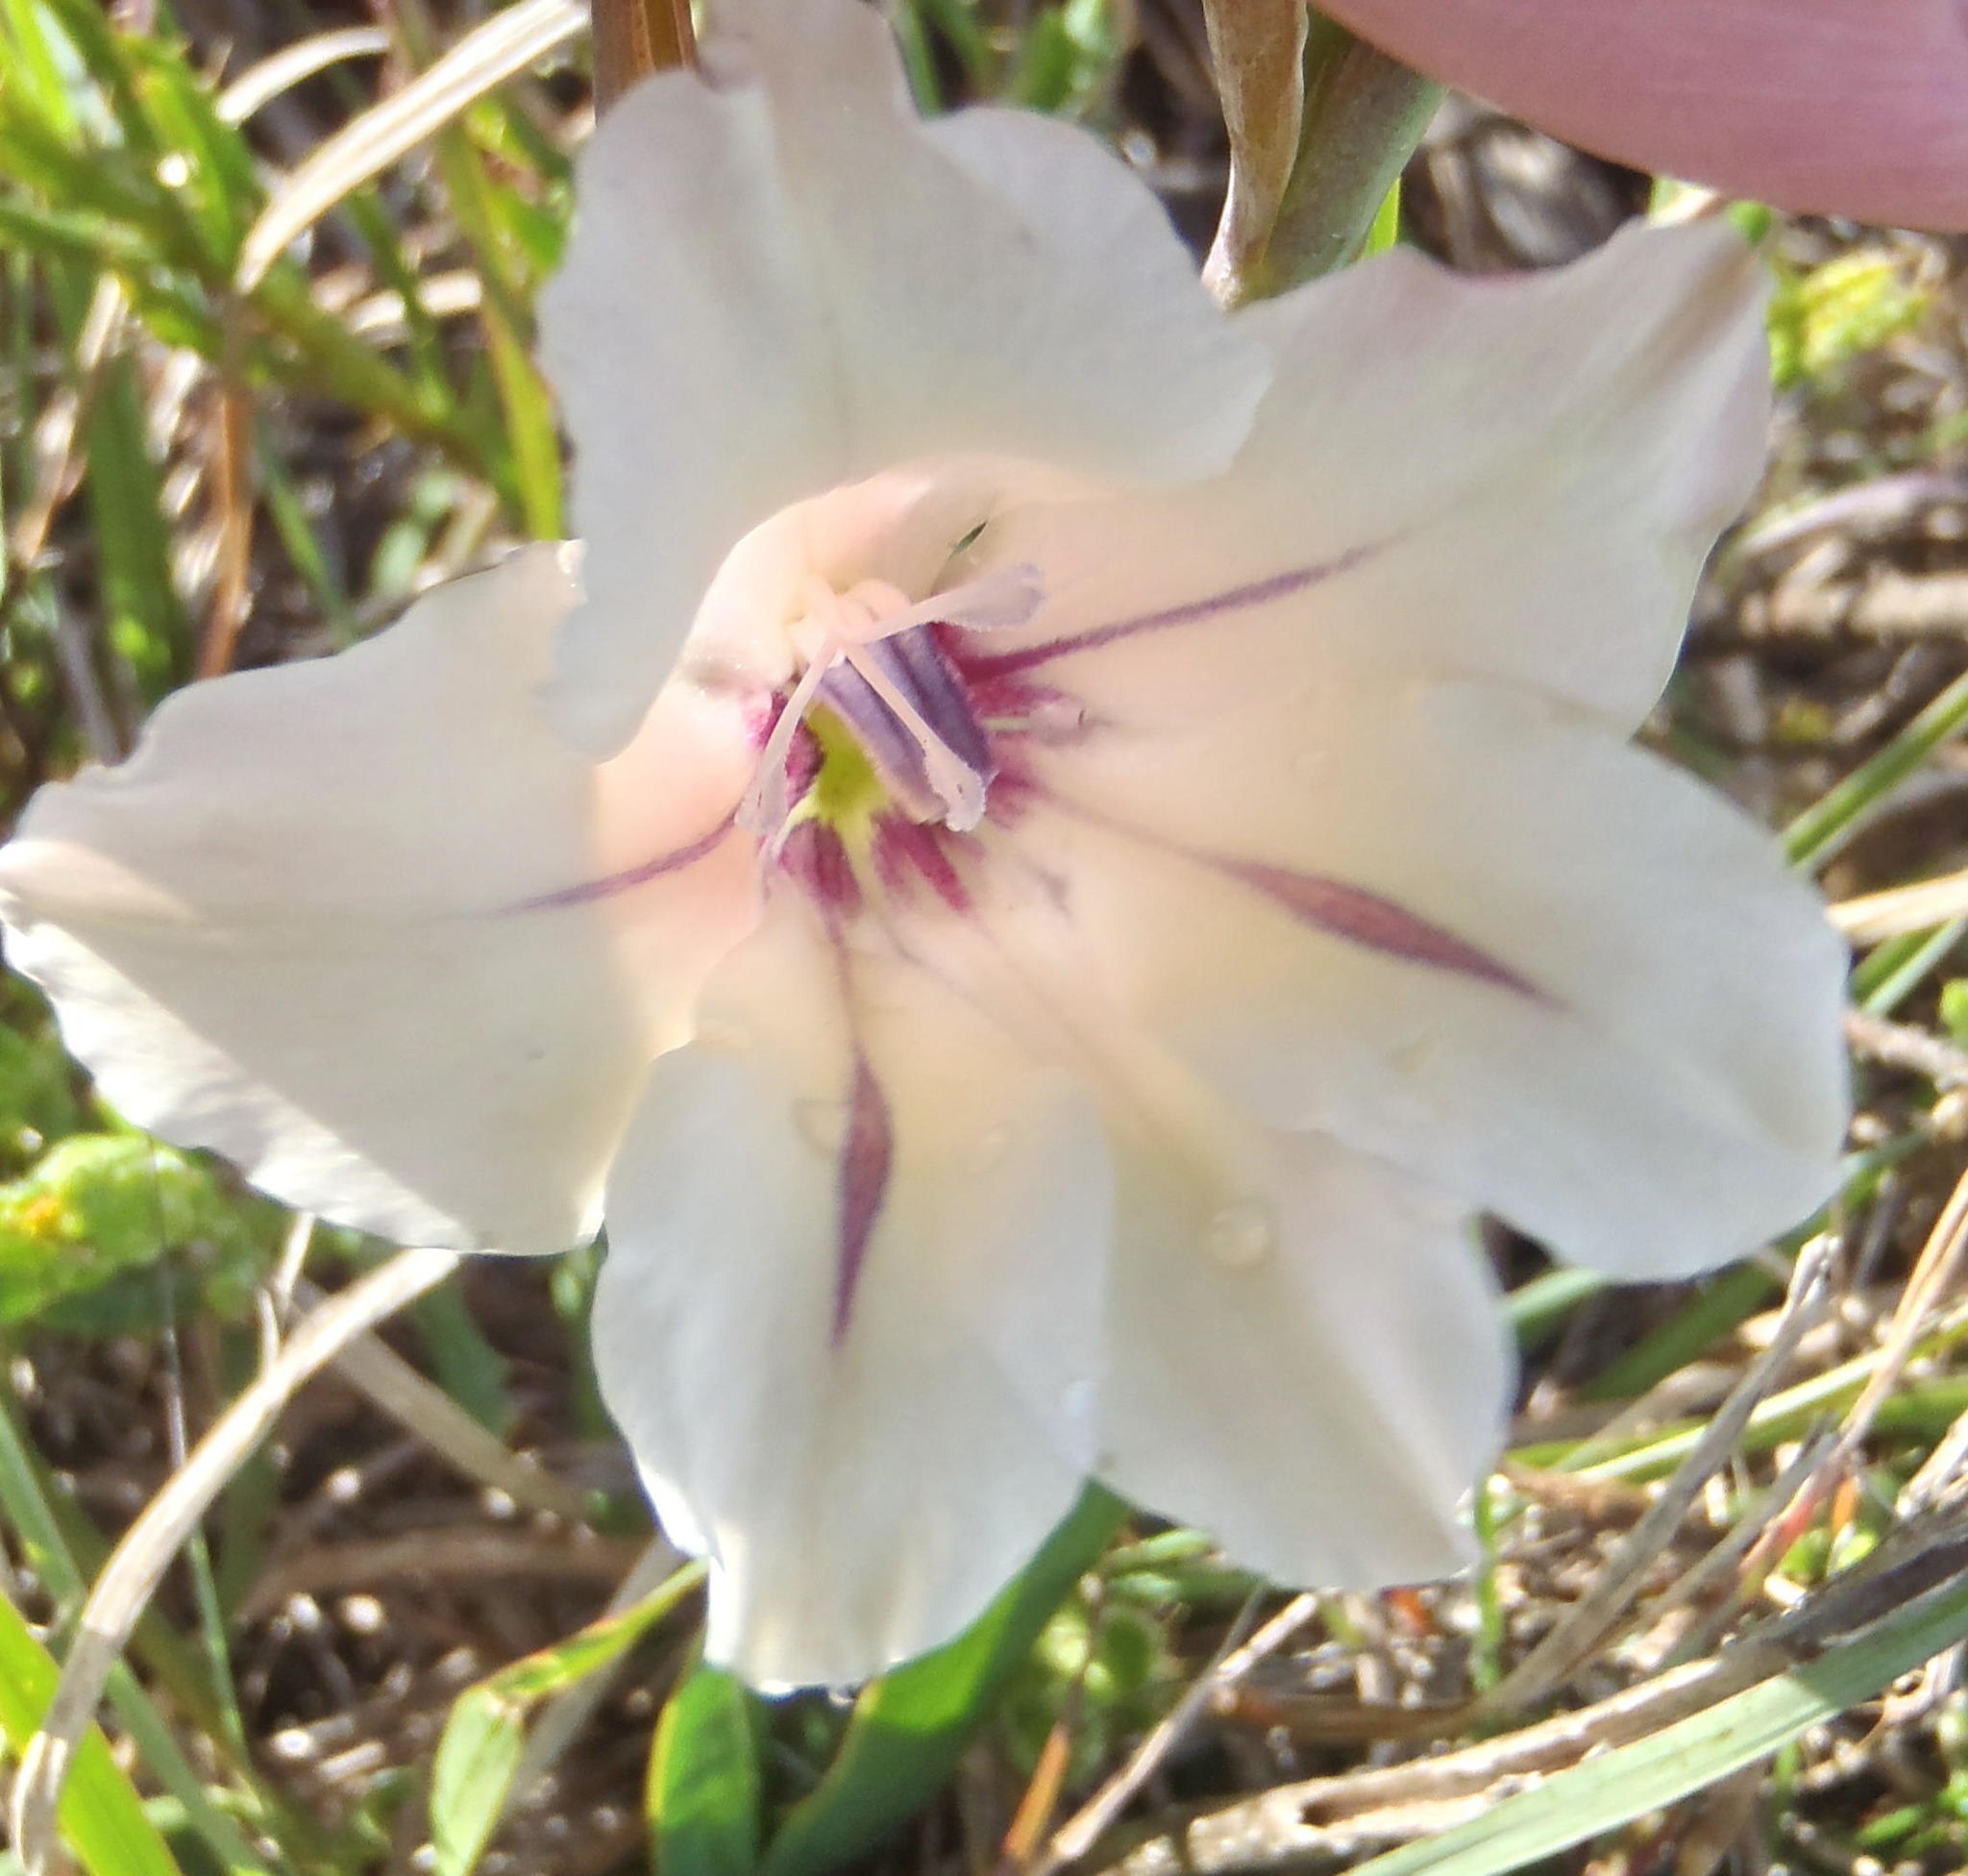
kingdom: Plantae
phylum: Tracheophyta
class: Liliopsida
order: Asparagales
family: Iridaceae
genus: Gladiolus
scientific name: Gladiolus floribundus
